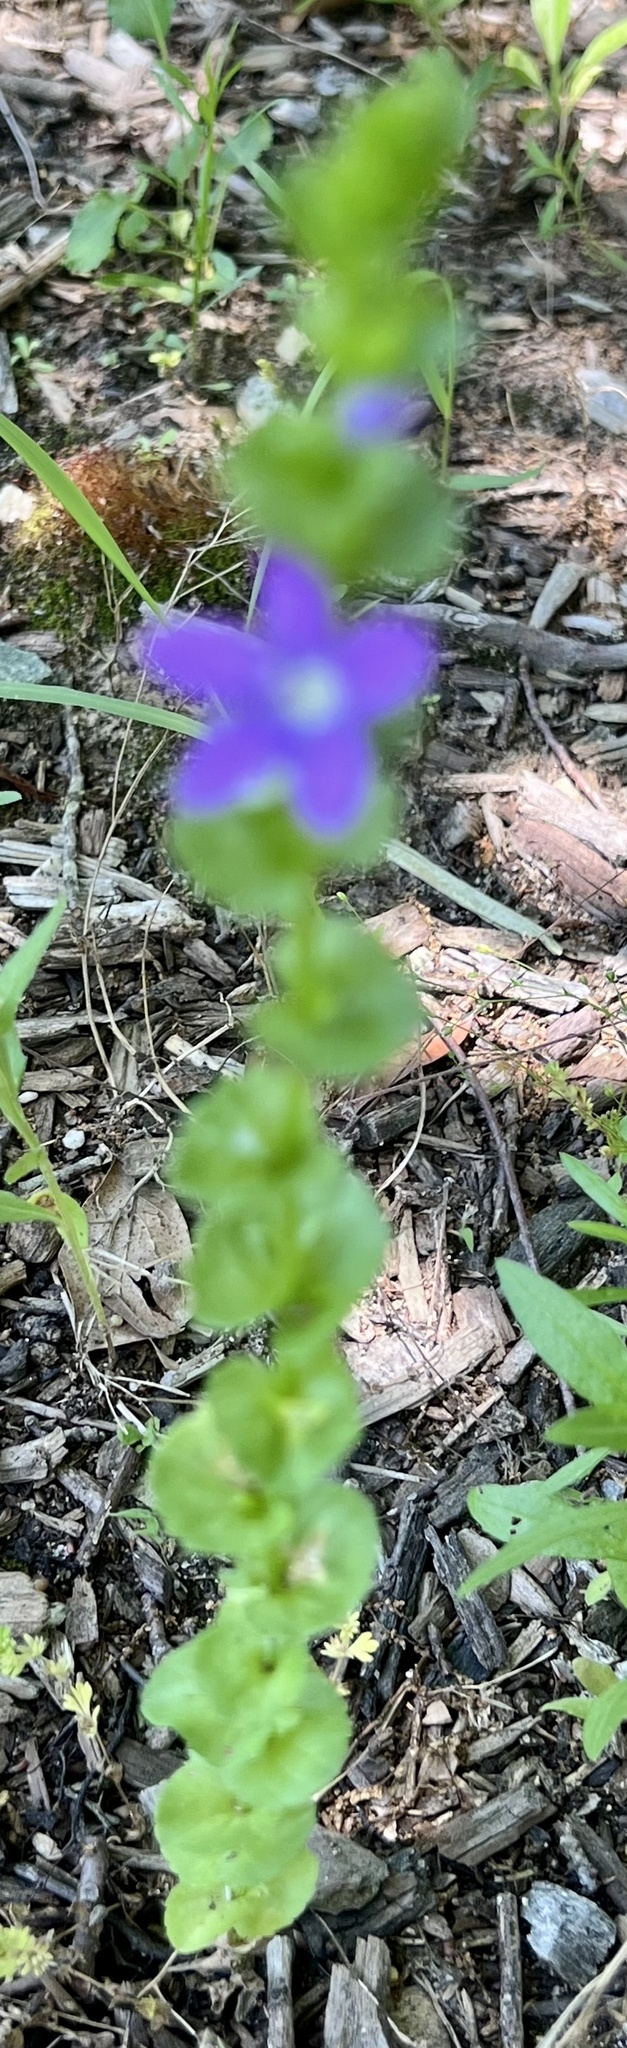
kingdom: Plantae
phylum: Tracheophyta
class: Magnoliopsida
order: Asterales
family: Campanulaceae
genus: Triodanis
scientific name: Triodanis perfoliata
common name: Clasping venus' looking-glass
